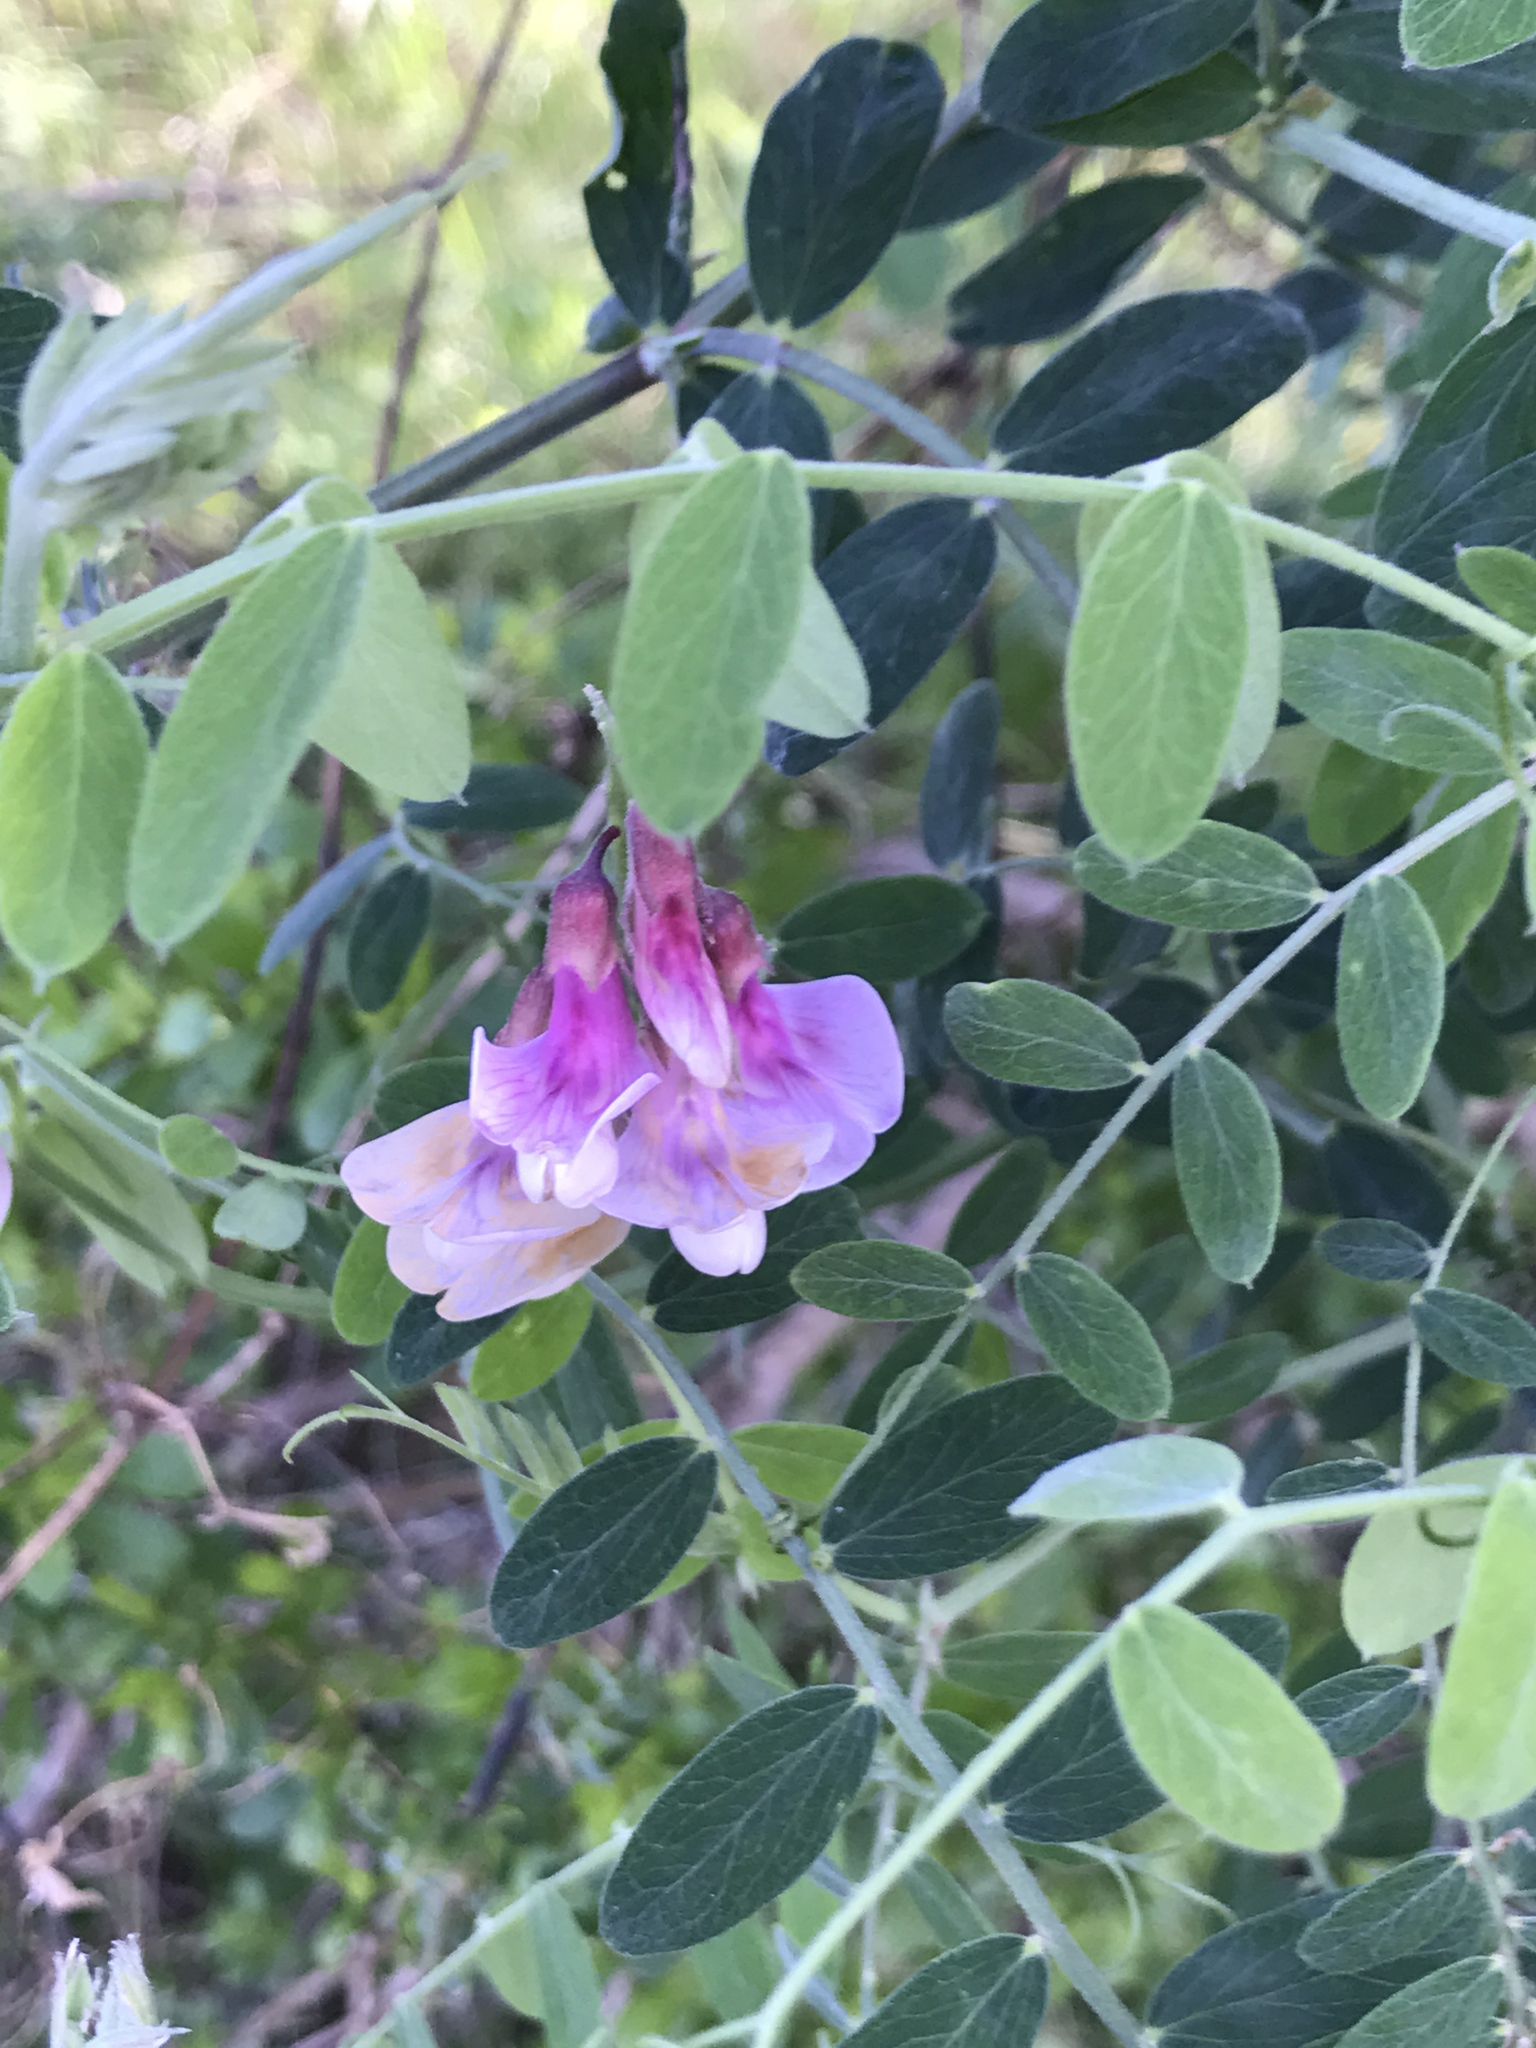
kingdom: Plantae
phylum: Tracheophyta
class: Magnoliopsida
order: Fabales
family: Fabaceae
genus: Lathyrus
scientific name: Lathyrus vestitus
